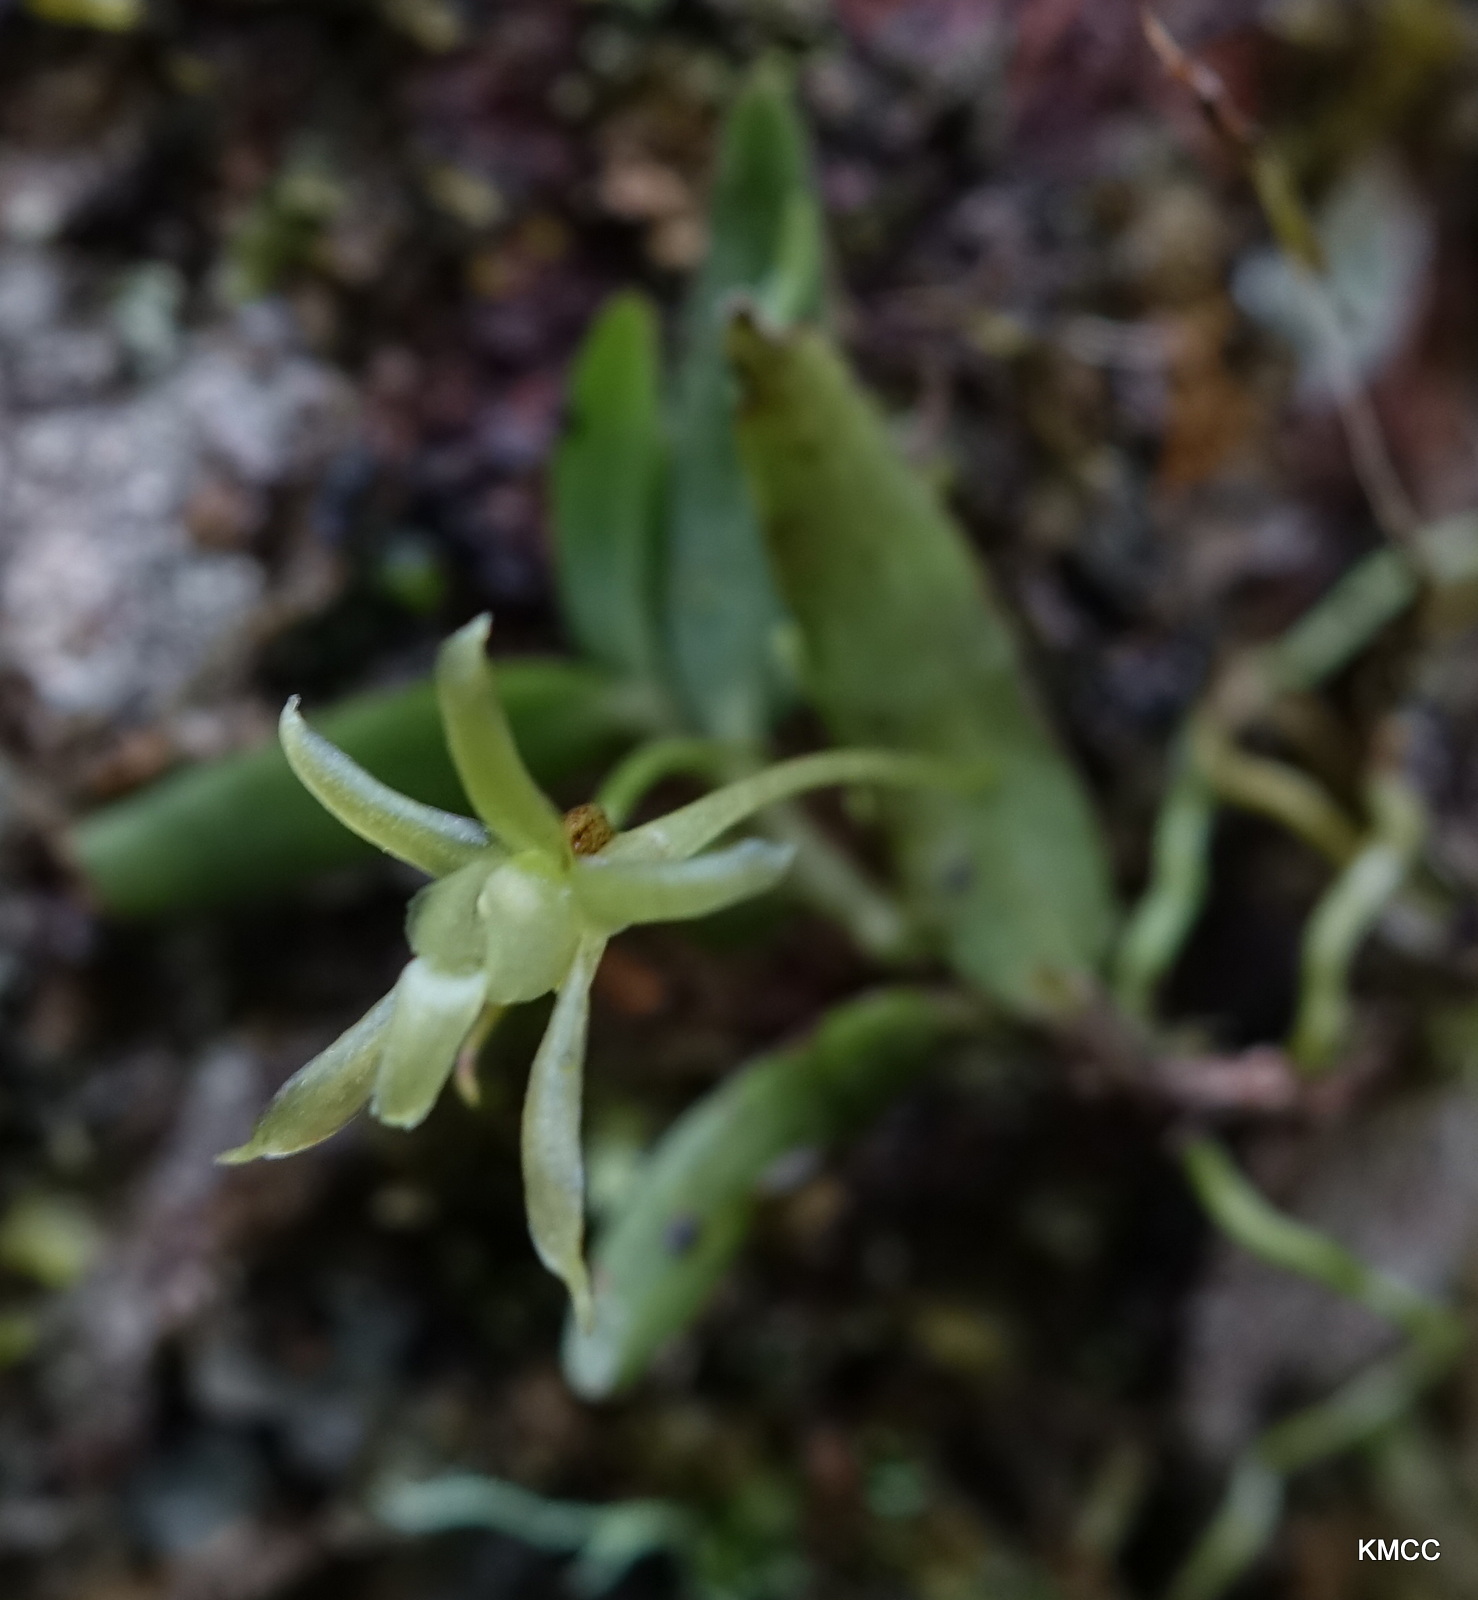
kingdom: Plantae
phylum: Tracheophyta
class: Liliopsida
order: Asparagales
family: Orchidaceae
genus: Lemurella
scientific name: Lemurella pallidiflora
